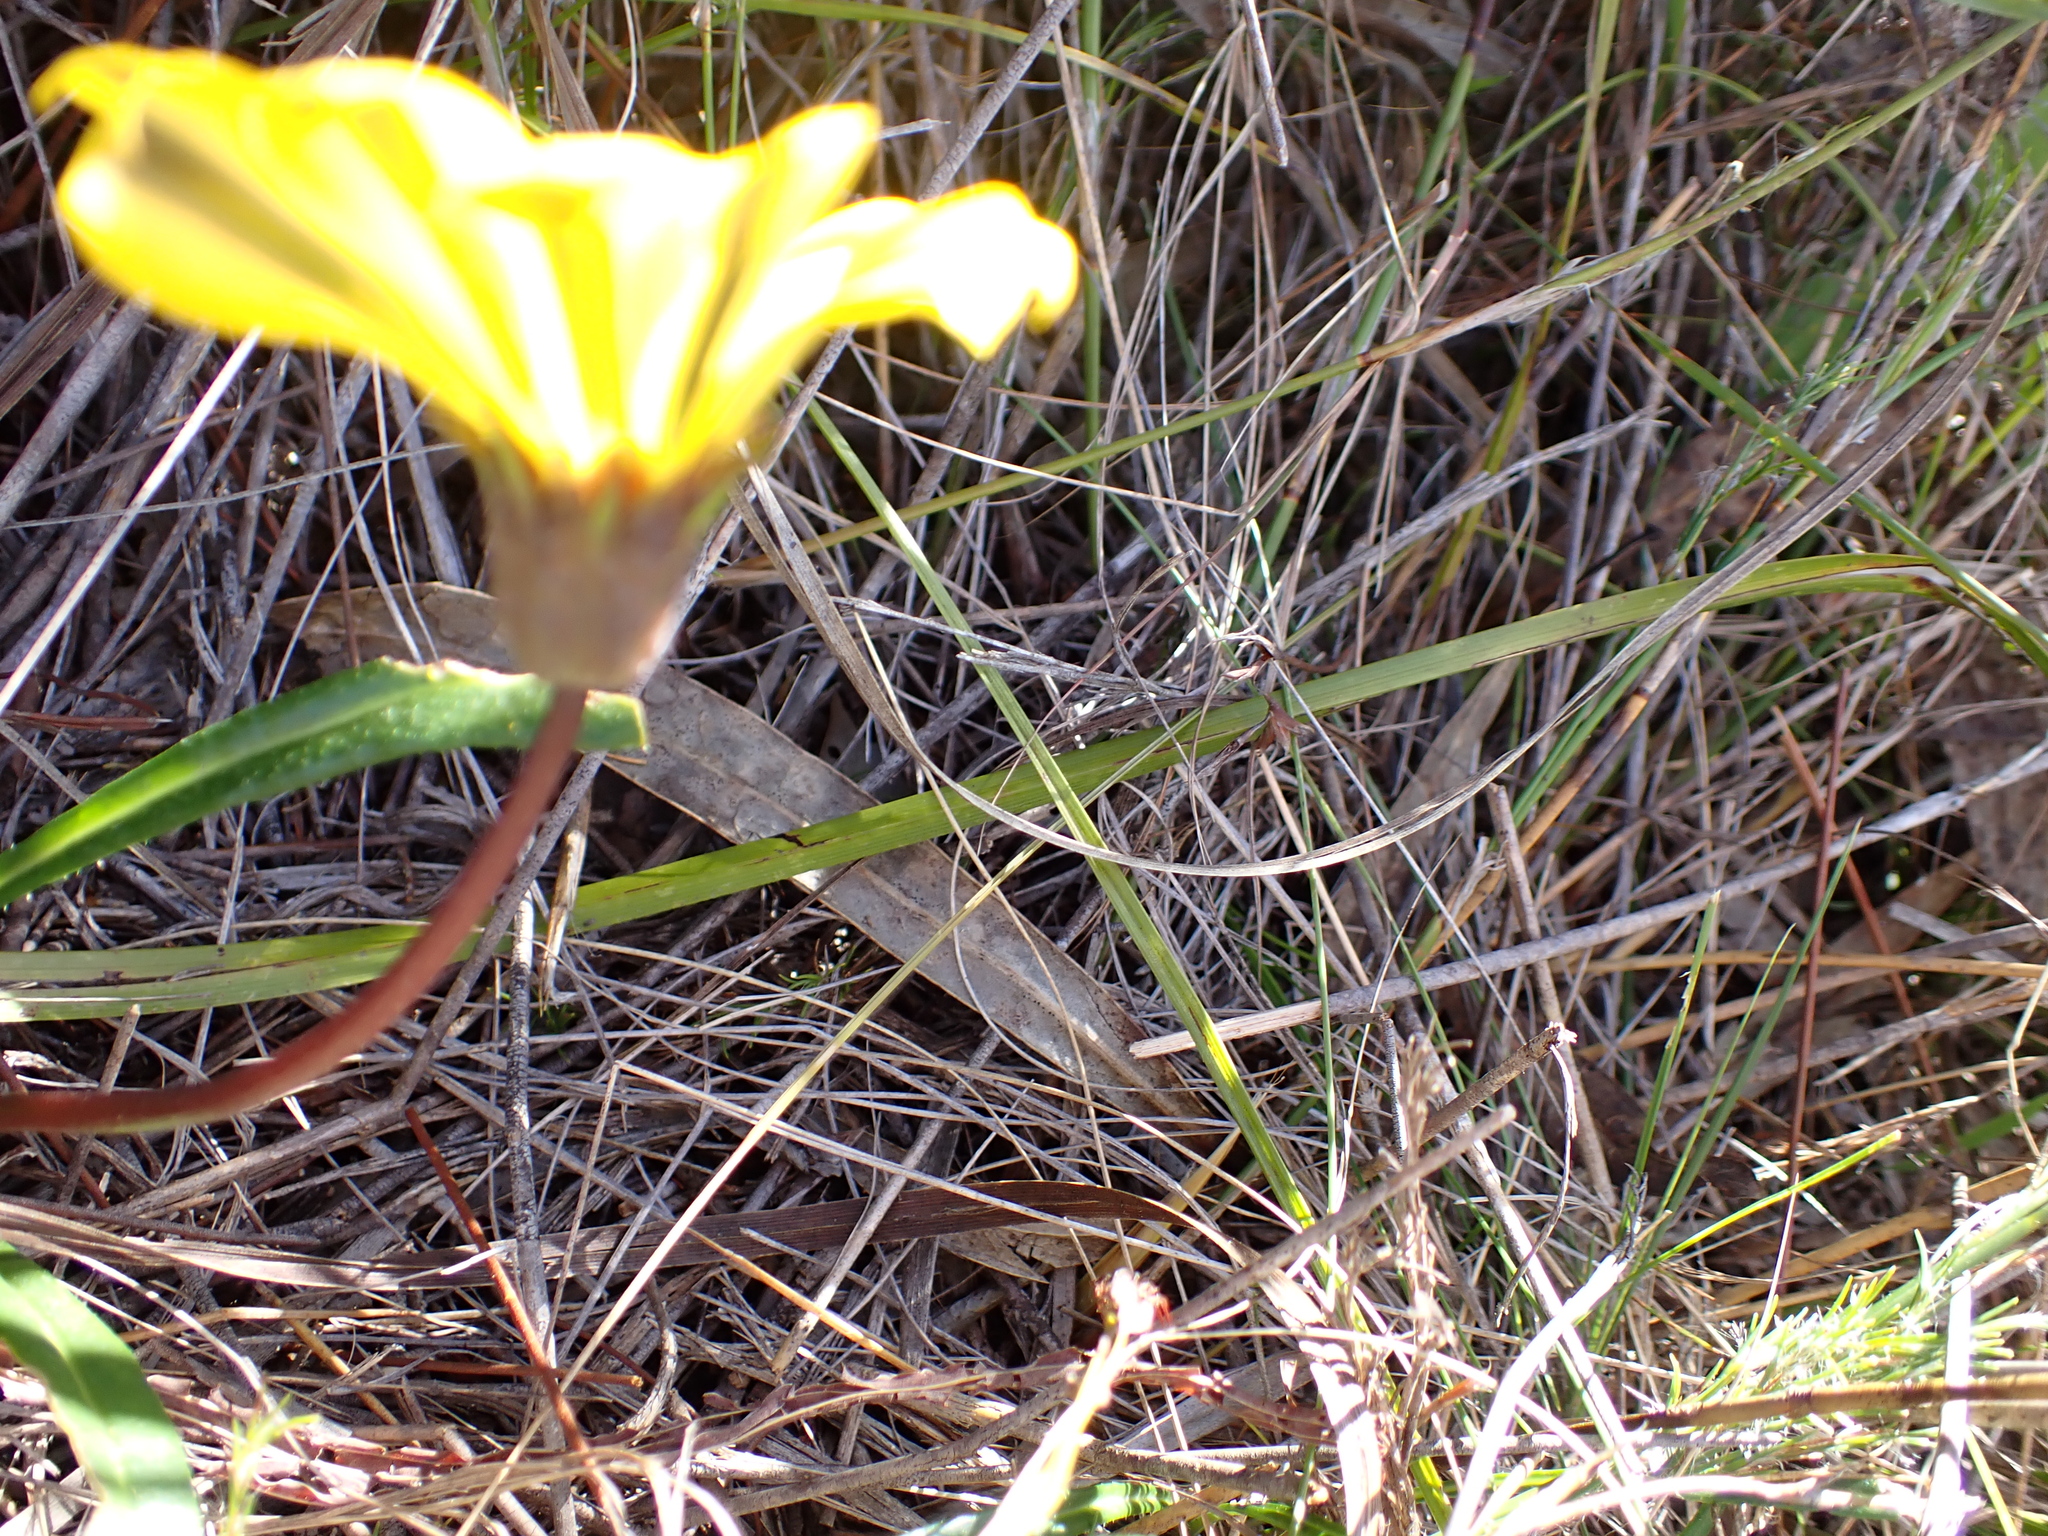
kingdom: Plantae
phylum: Tracheophyta
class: Magnoliopsida
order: Asterales
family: Asteraceae
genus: Gazania
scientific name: Gazania krebsiana
